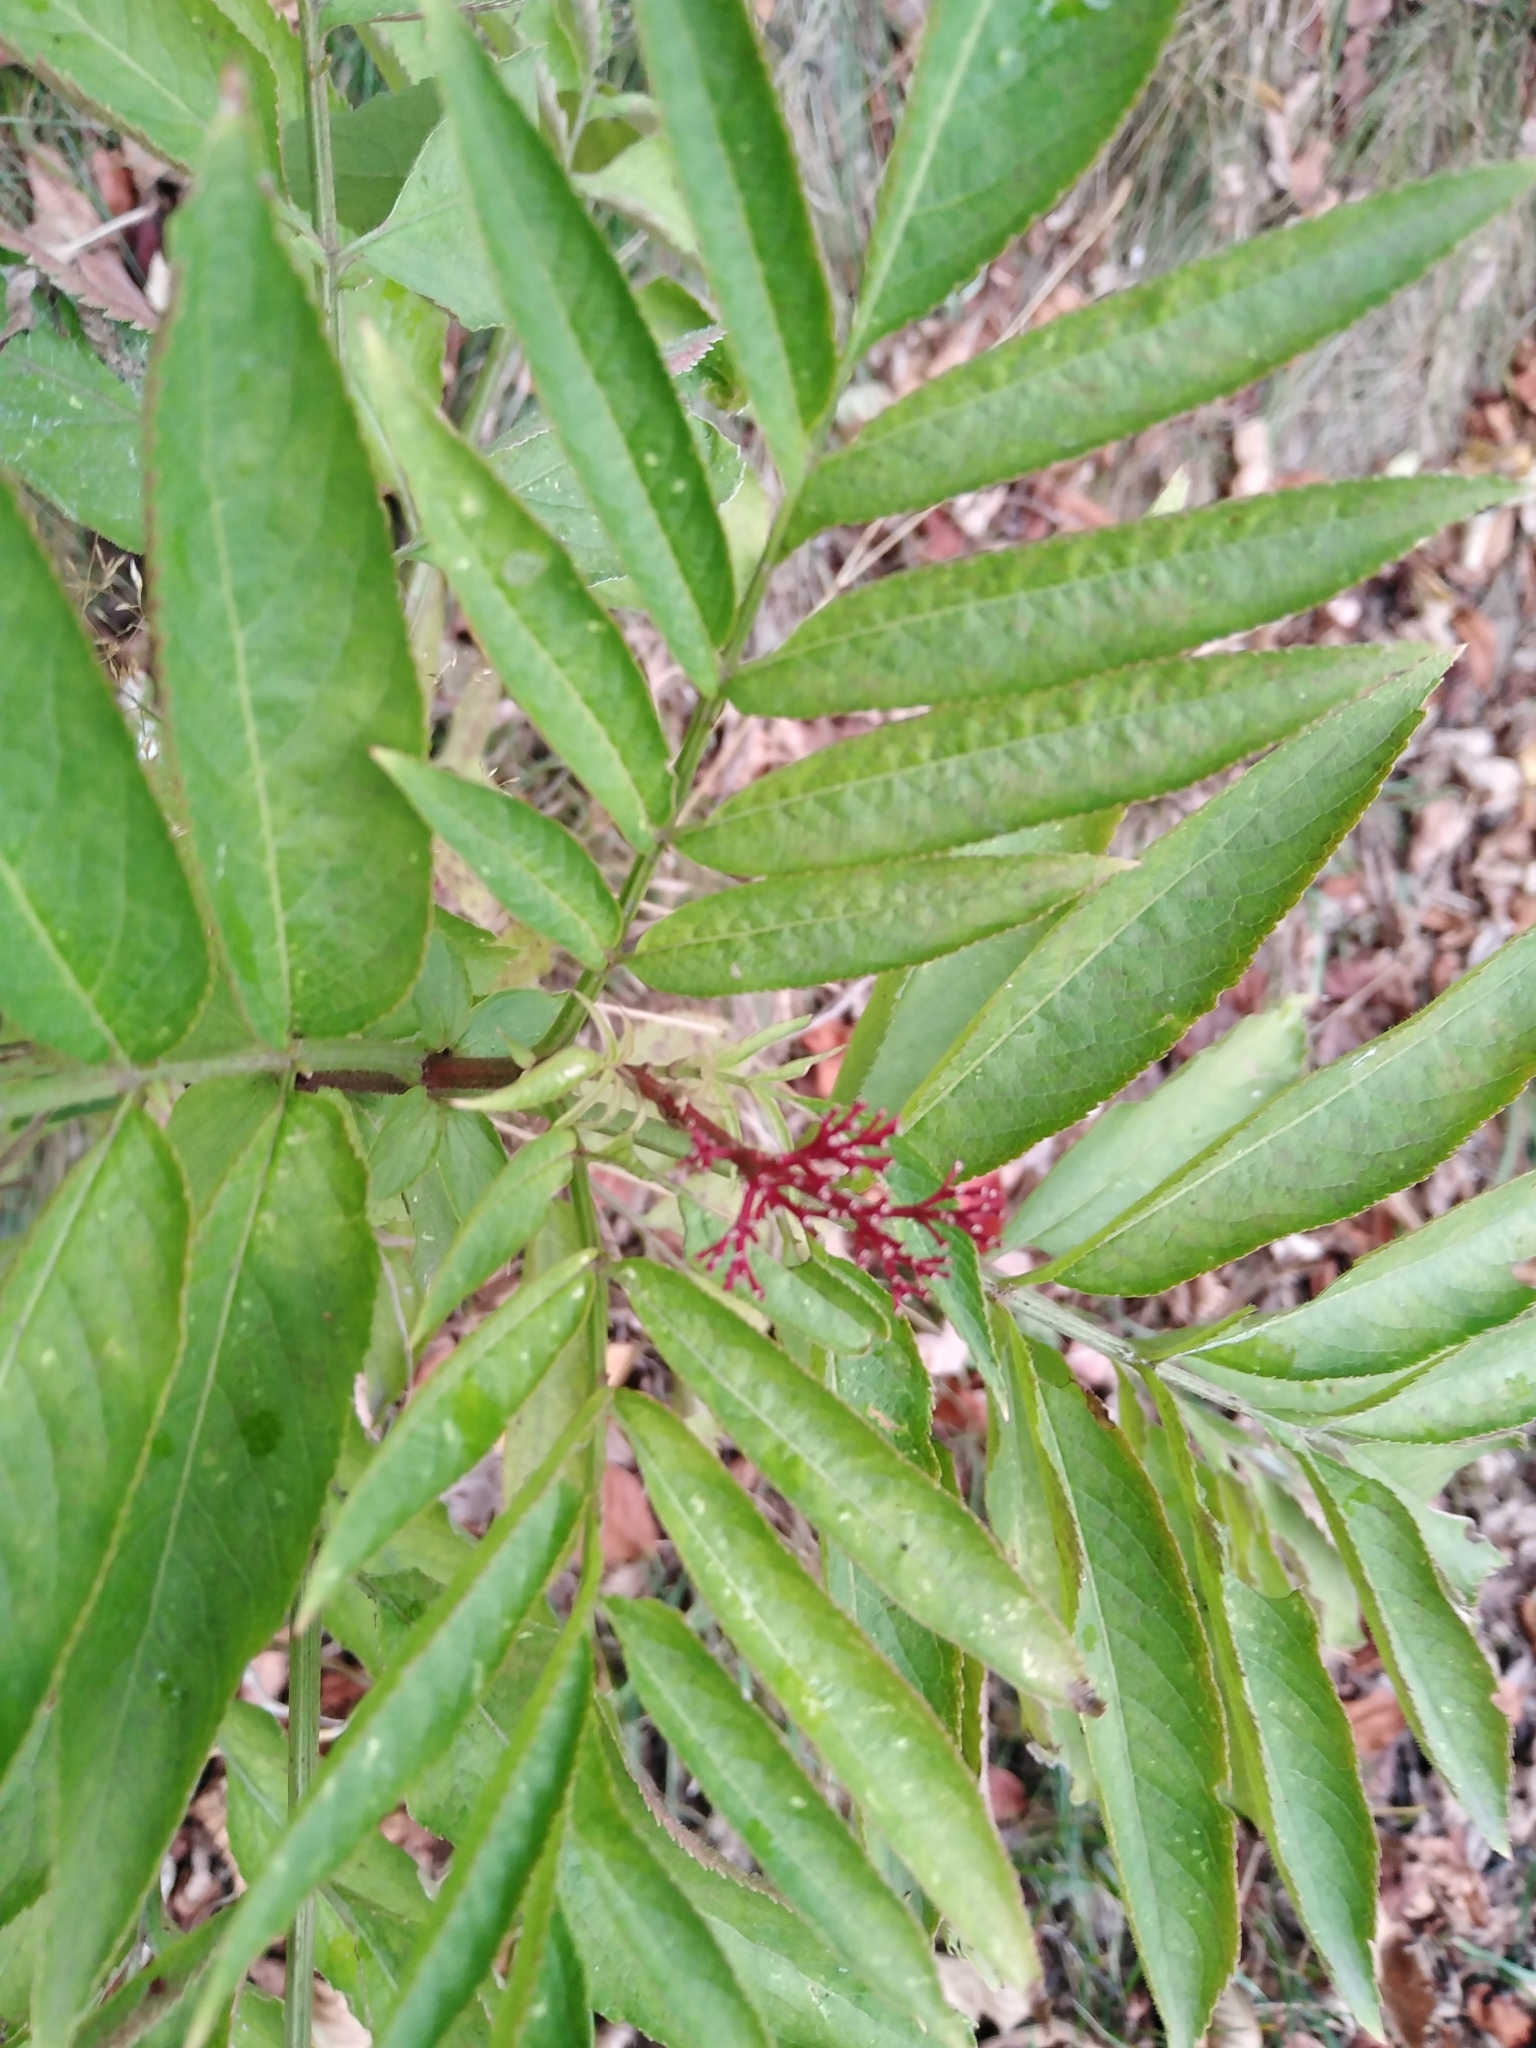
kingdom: Plantae
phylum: Tracheophyta
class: Magnoliopsida
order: Dipsacales
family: Viburnaceae
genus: Sambucus
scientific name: Sambucus ebulus
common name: Dwarf elder
